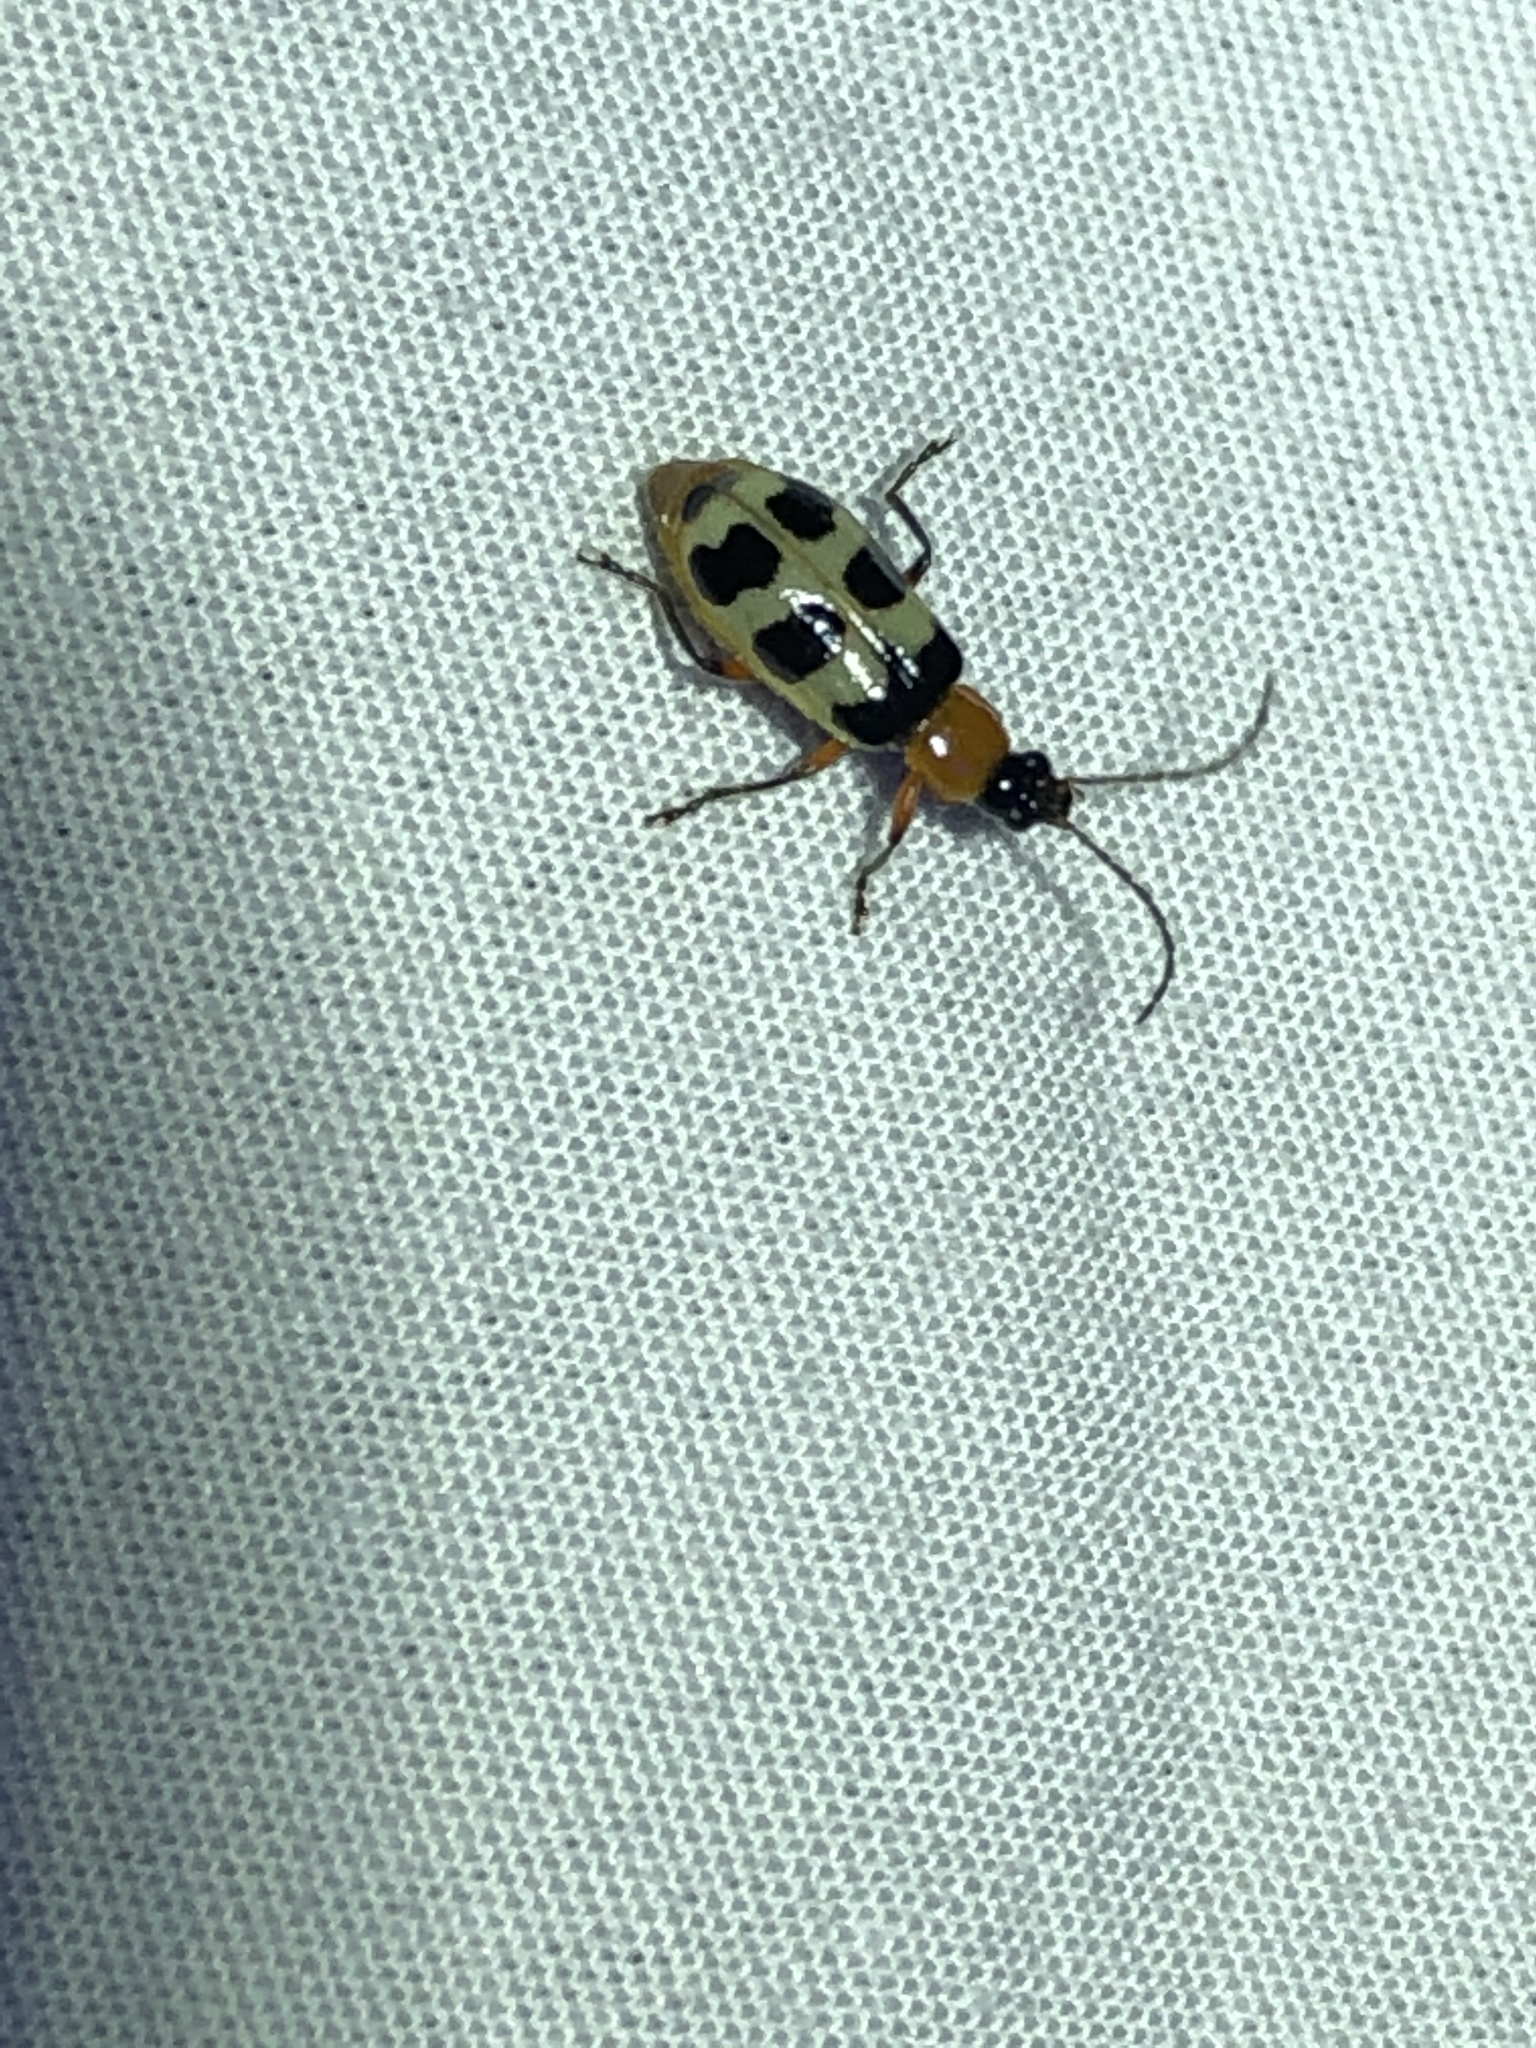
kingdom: Animalia
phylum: Arthropoda
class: Insecta
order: Coleoptera
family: Chrysomelidae
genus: Paranapiacaba
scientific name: Paranapiacaba tricincta
